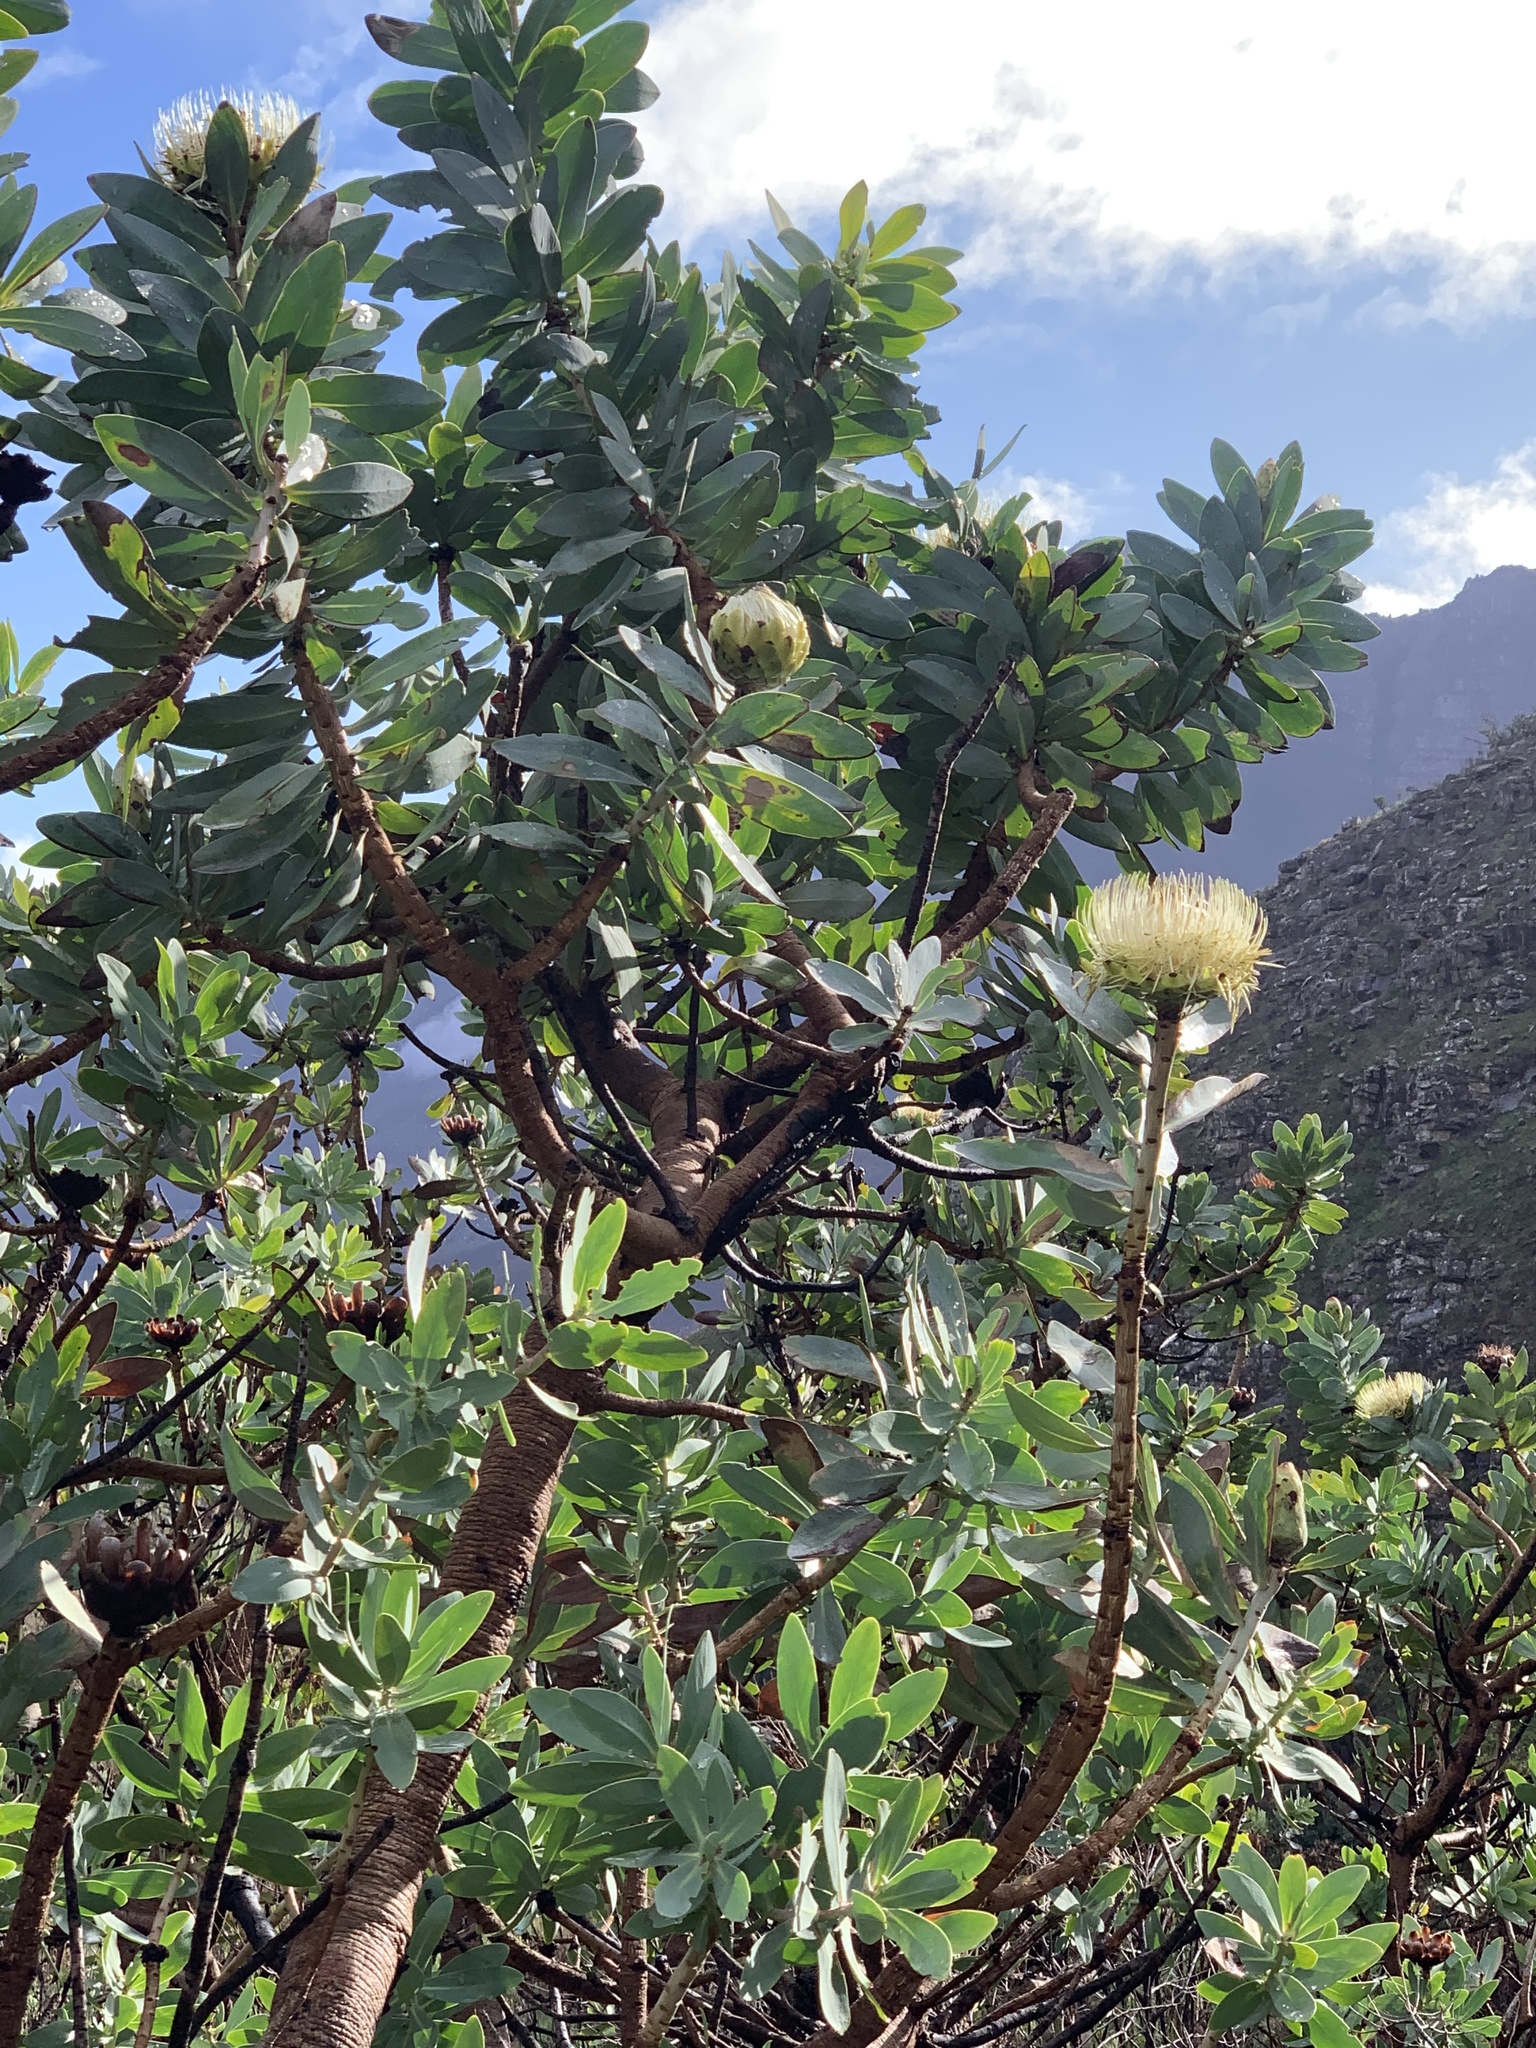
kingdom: Plantae
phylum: Tracheophyta
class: Magnoliopsida
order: Proteales
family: Proteaceae
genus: Protea
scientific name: Protea nitida
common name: Tree protea
